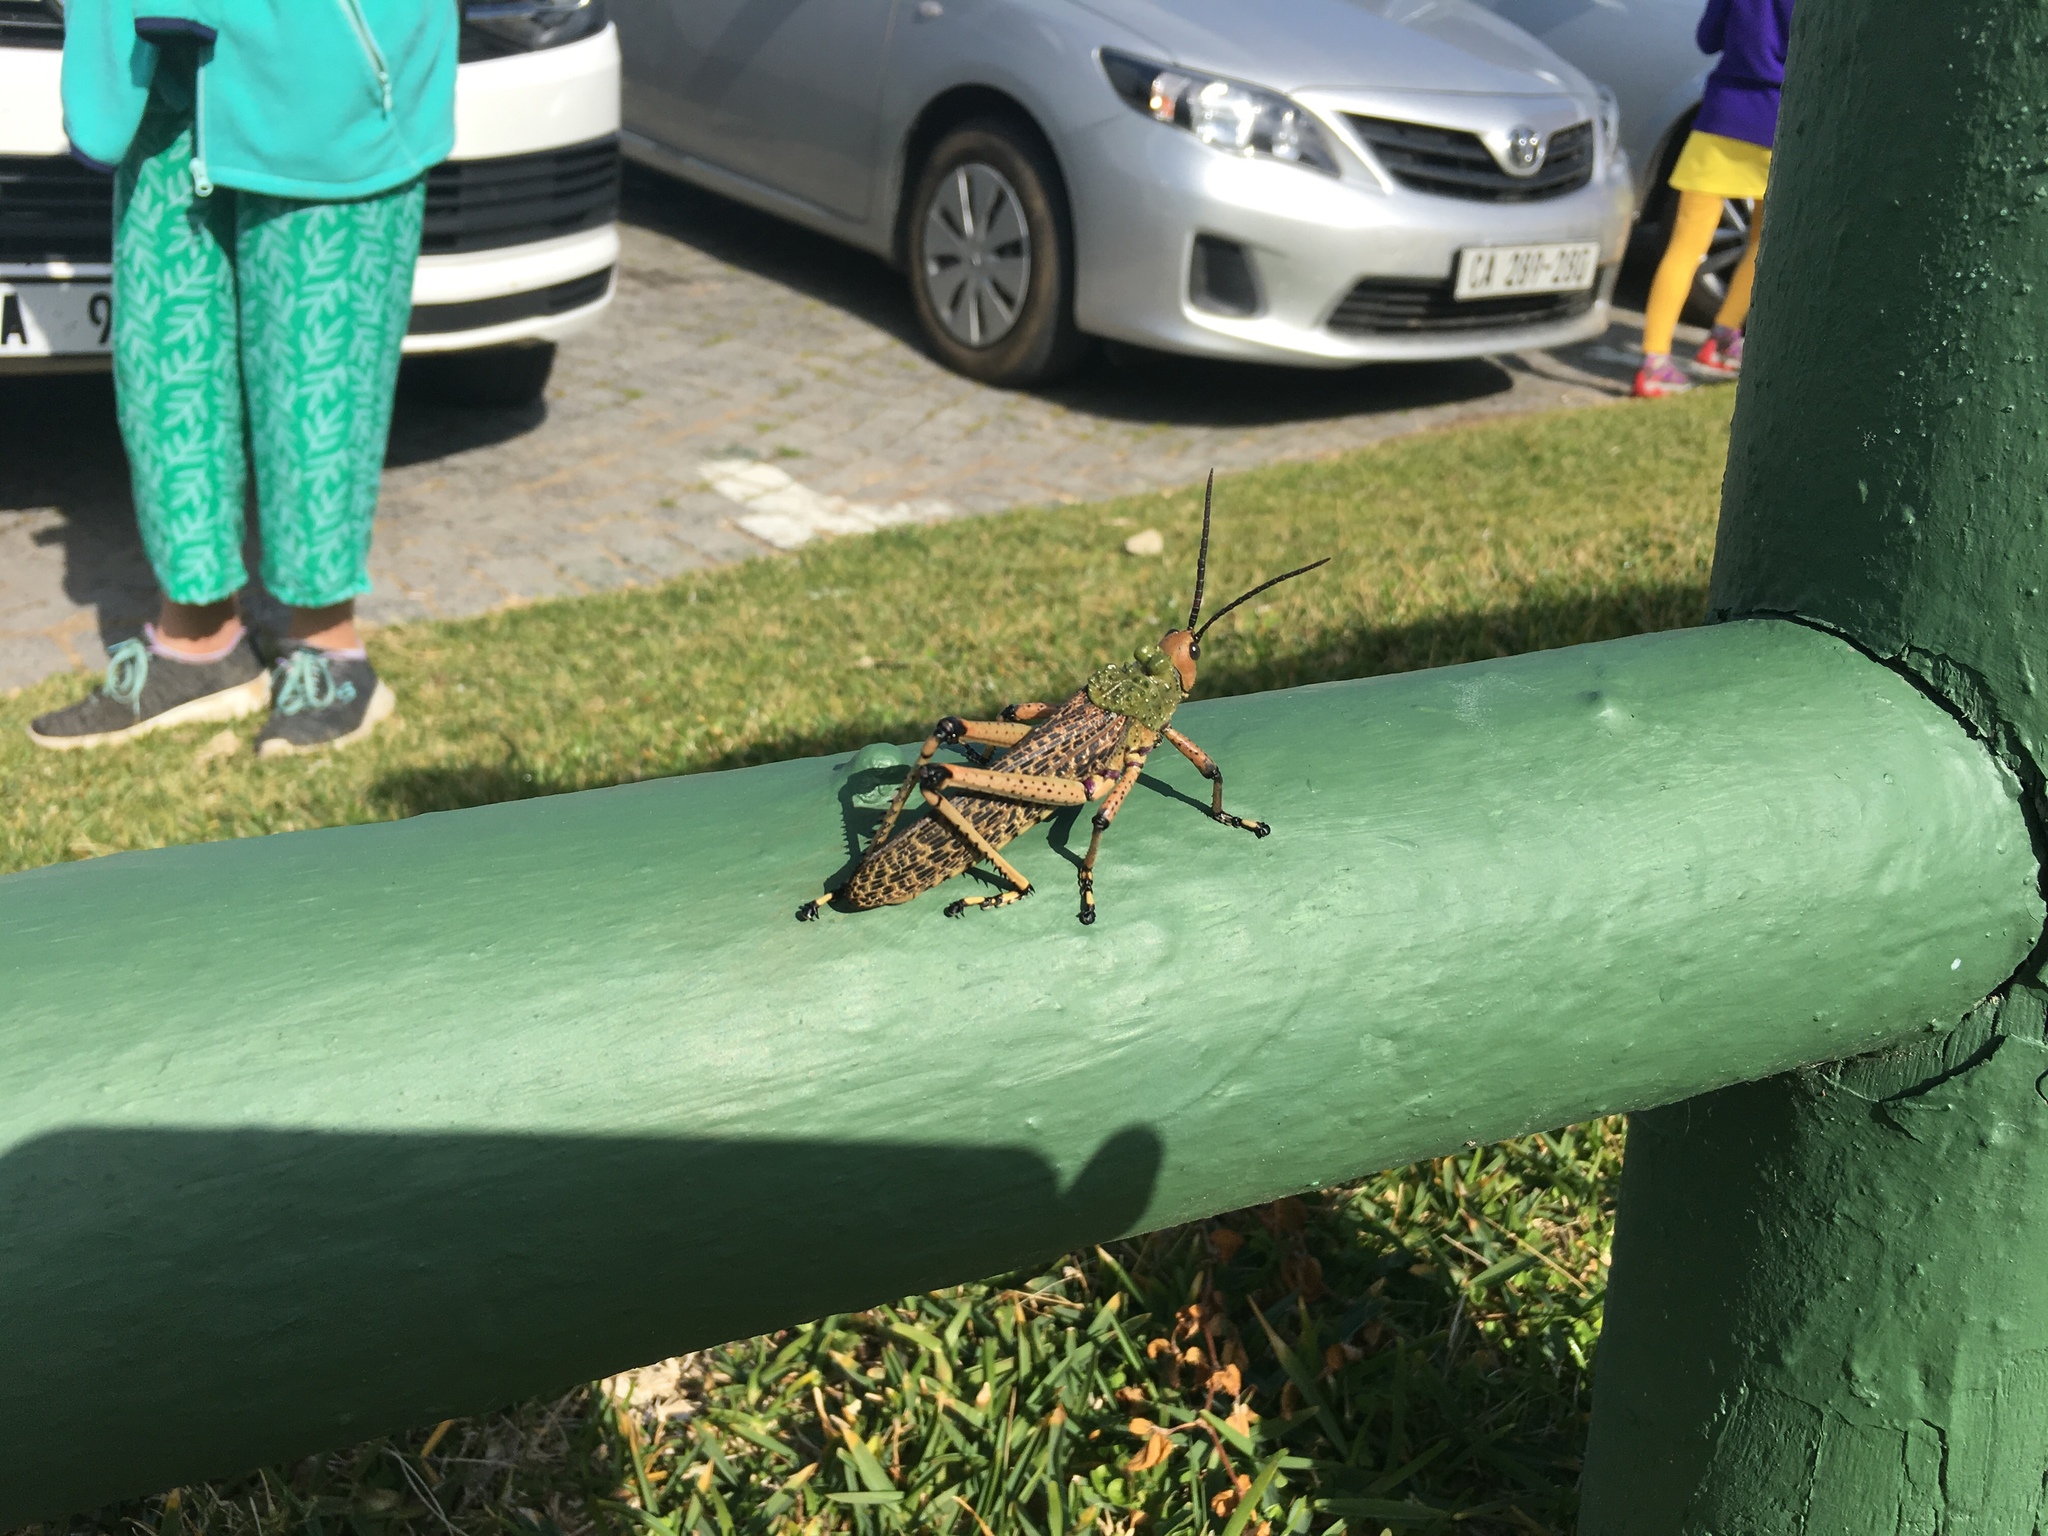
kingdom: Animalia
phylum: Arthropoda
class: Insecta
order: Orthoptera
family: Pyrgomorphidae
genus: Phymateus
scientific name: Phymateus leprosus
